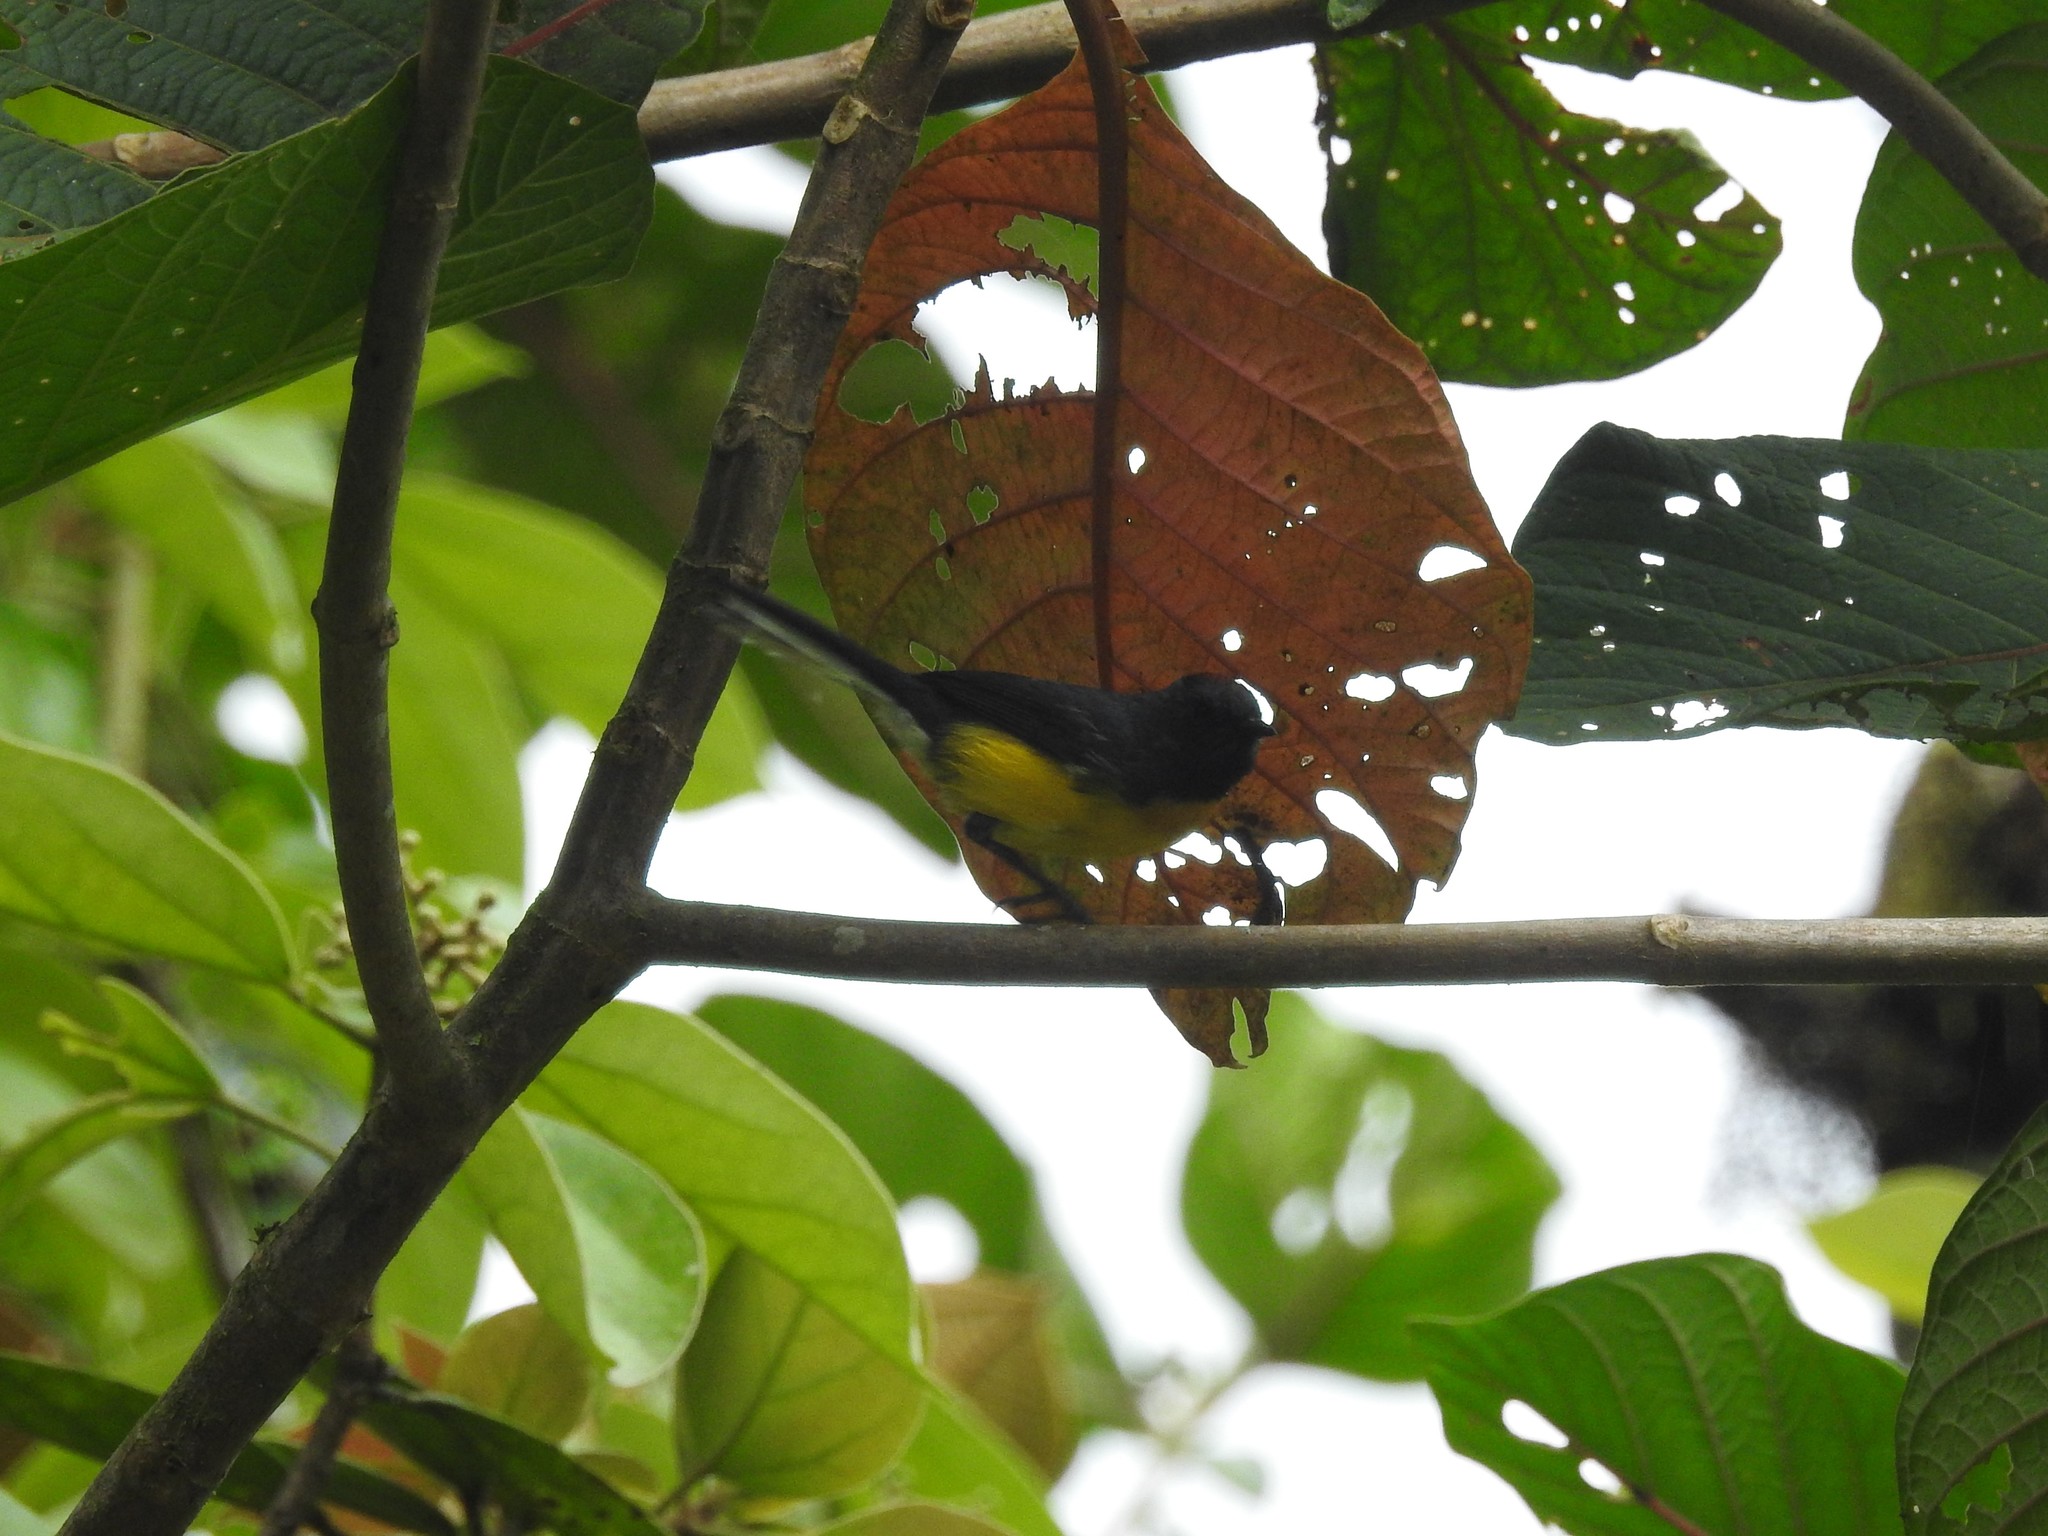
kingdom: Animalia
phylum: Chordata
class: Aves
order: Passeriformes
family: Parulidae
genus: Myioborus
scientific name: Myioborus miniatus
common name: Slate-throated redstart
